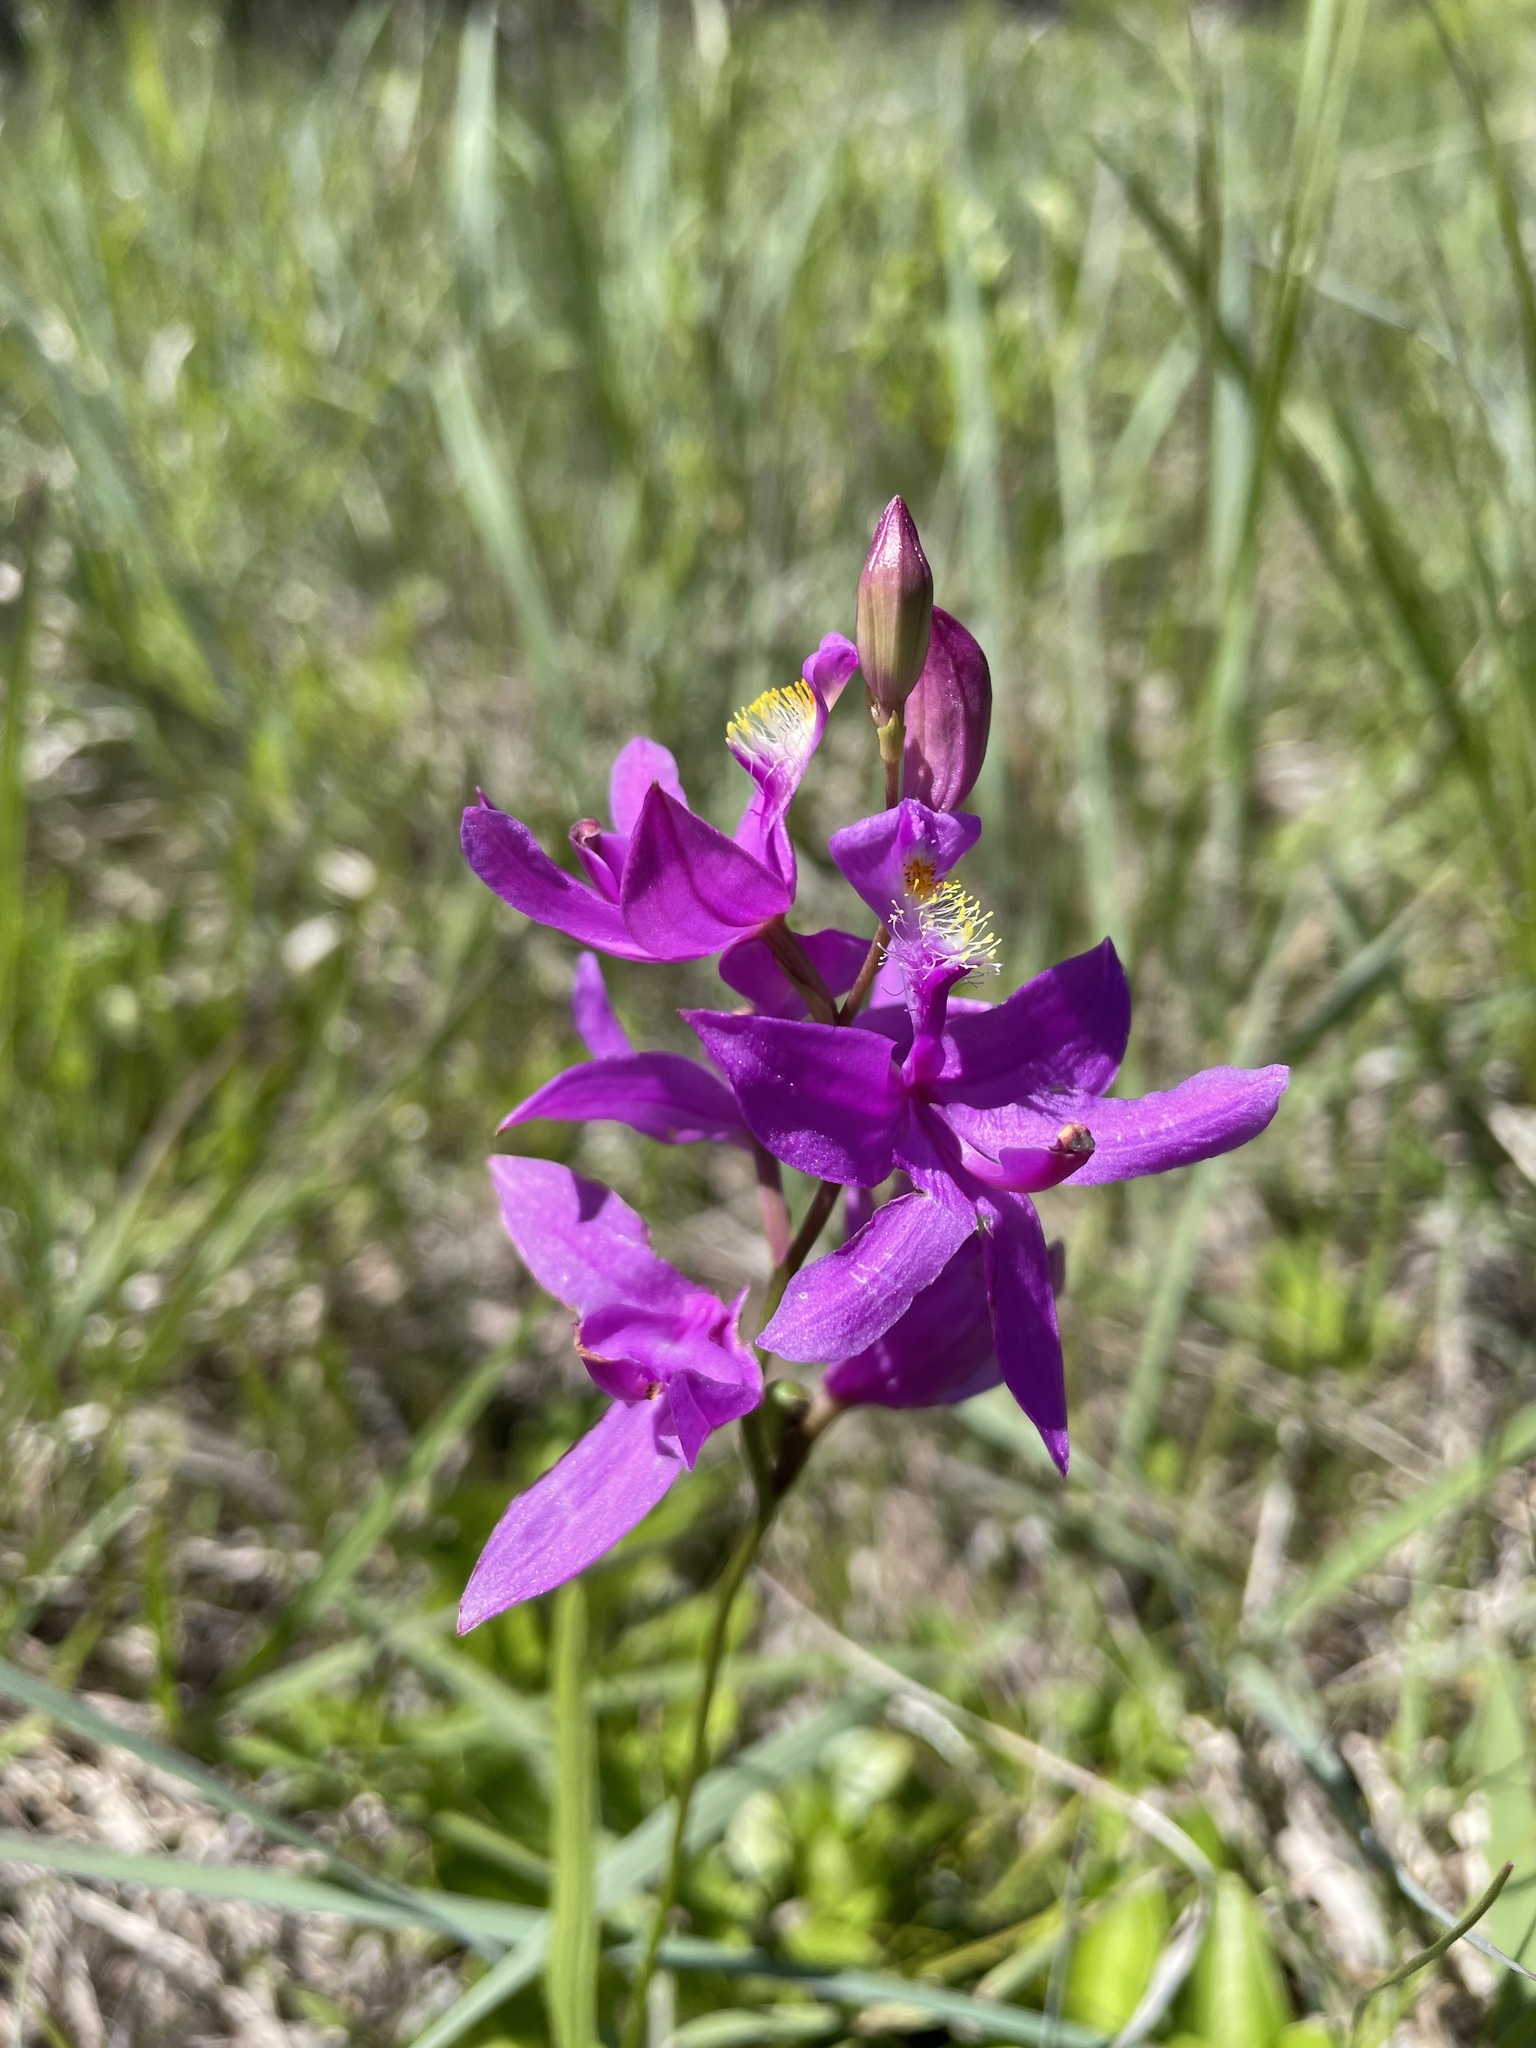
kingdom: Plantae
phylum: Tracheophyta
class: Liliopsida
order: Asparagales
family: Orchidaceae
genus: Calopogon
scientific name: Calopogon tuberosus
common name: Grass-pink
